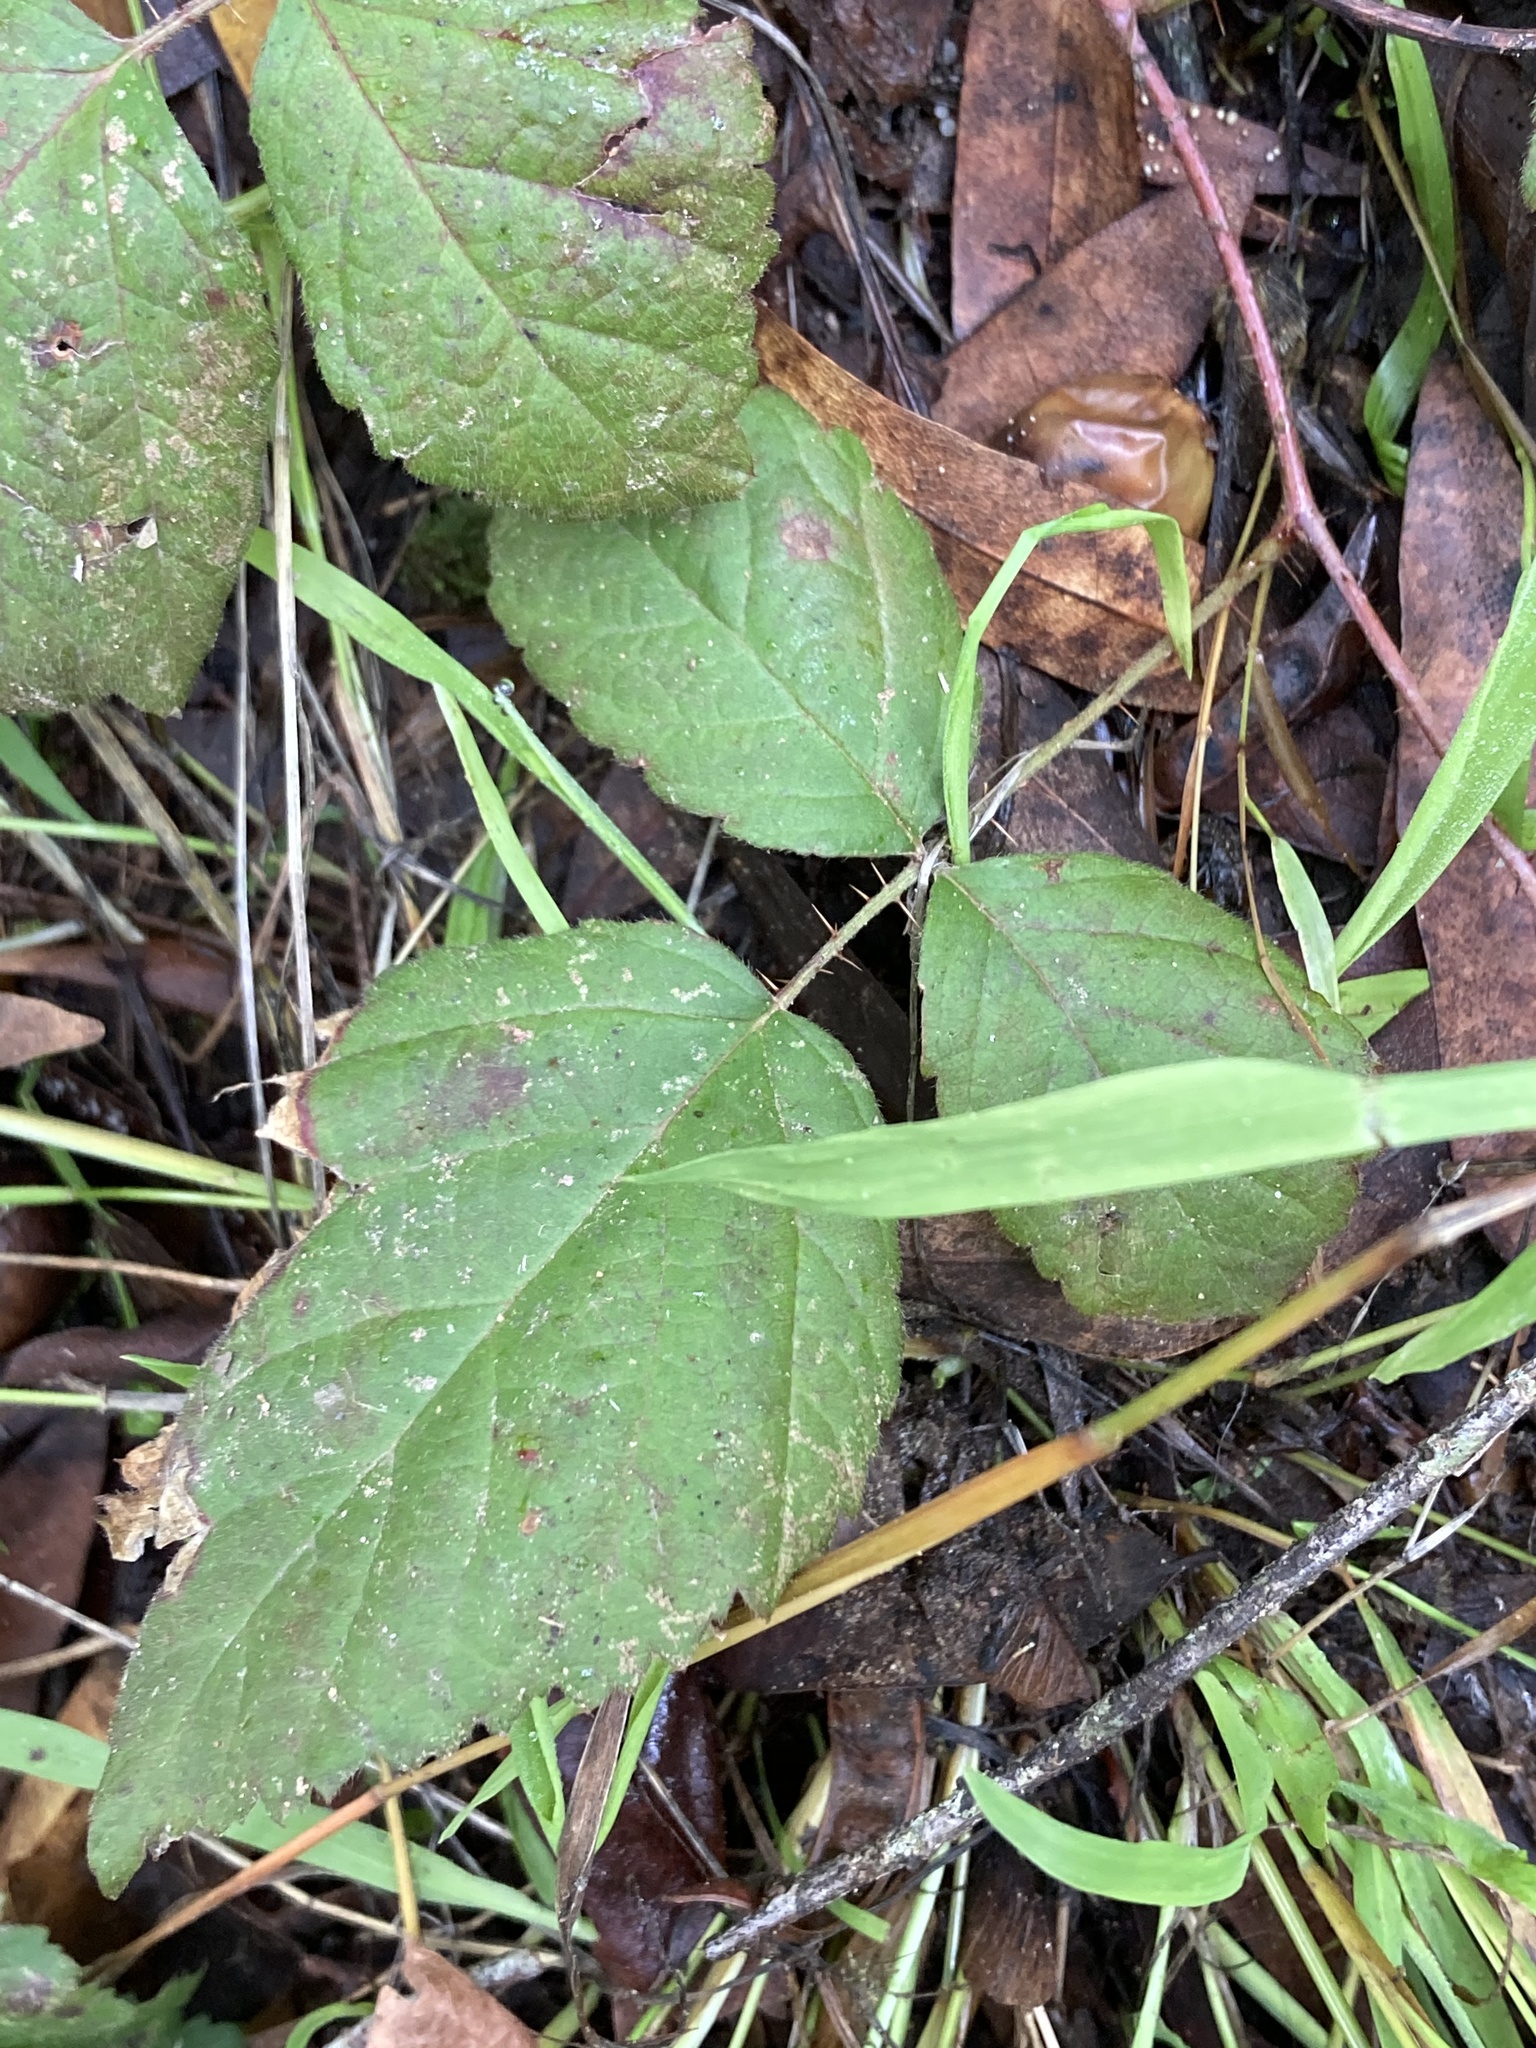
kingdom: Plantae
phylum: Tracheophyta
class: Magnoliopsida
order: Rosales
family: Rosaceae
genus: Rubus
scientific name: Rubus ursinus
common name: Pacific blackberry
